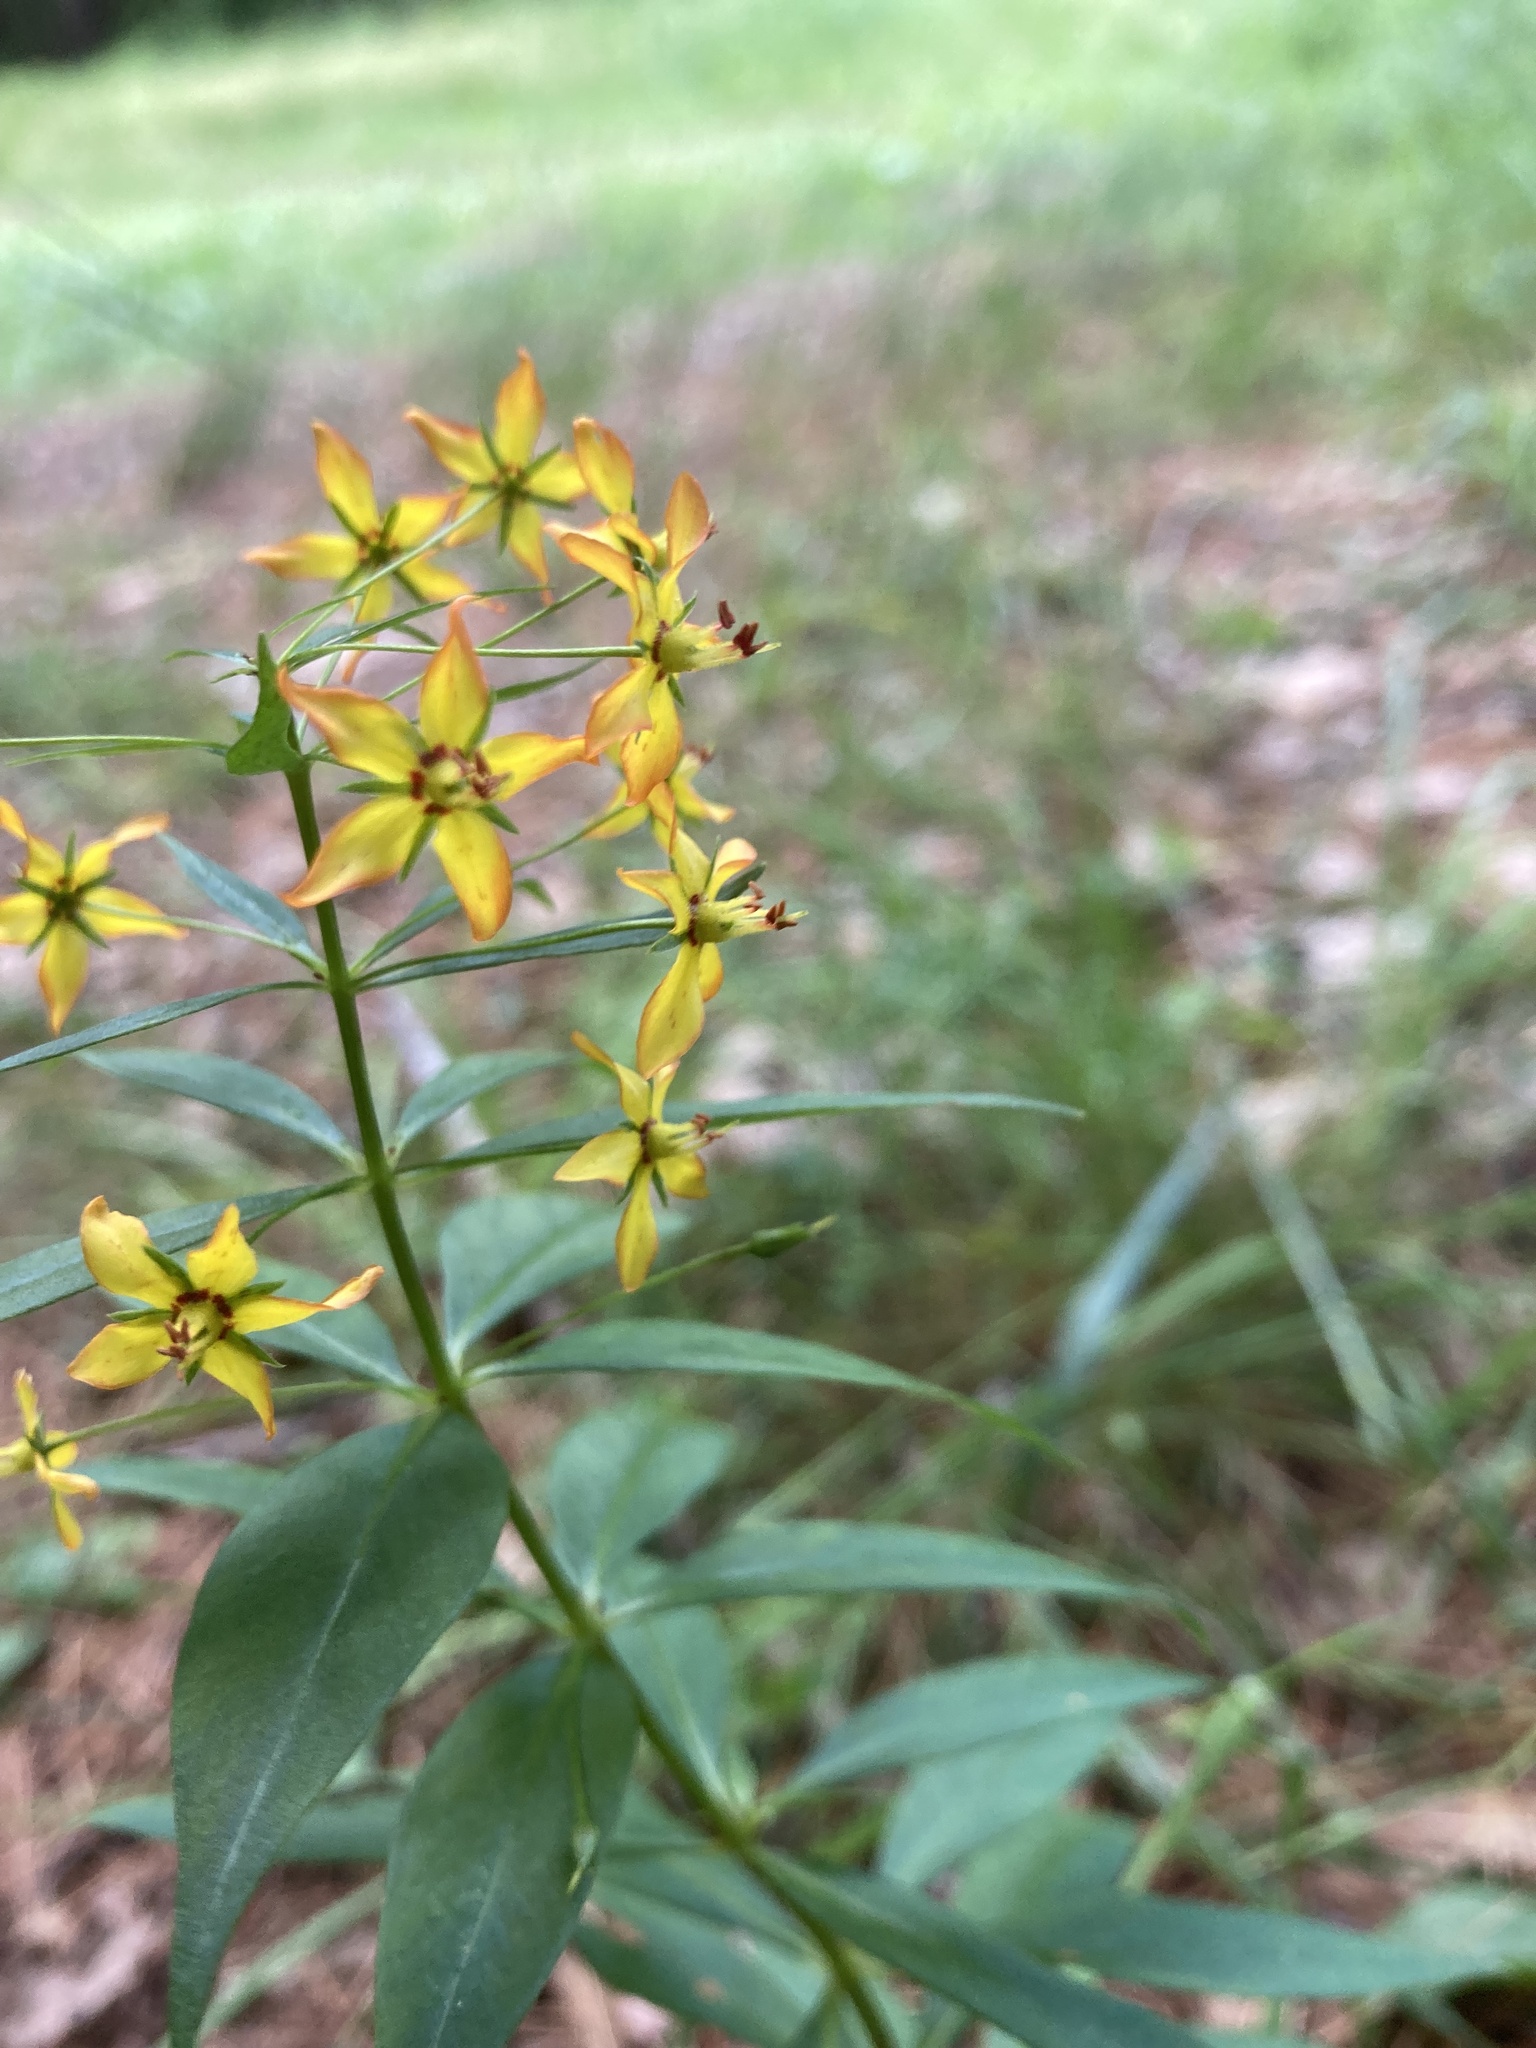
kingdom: Plantae
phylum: Tracheophyta
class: Magnoliopsida
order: Ericales
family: Primulaceae
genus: Lysimachia
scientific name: Lysimachia quadrifolia
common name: Whorled loosestrife
